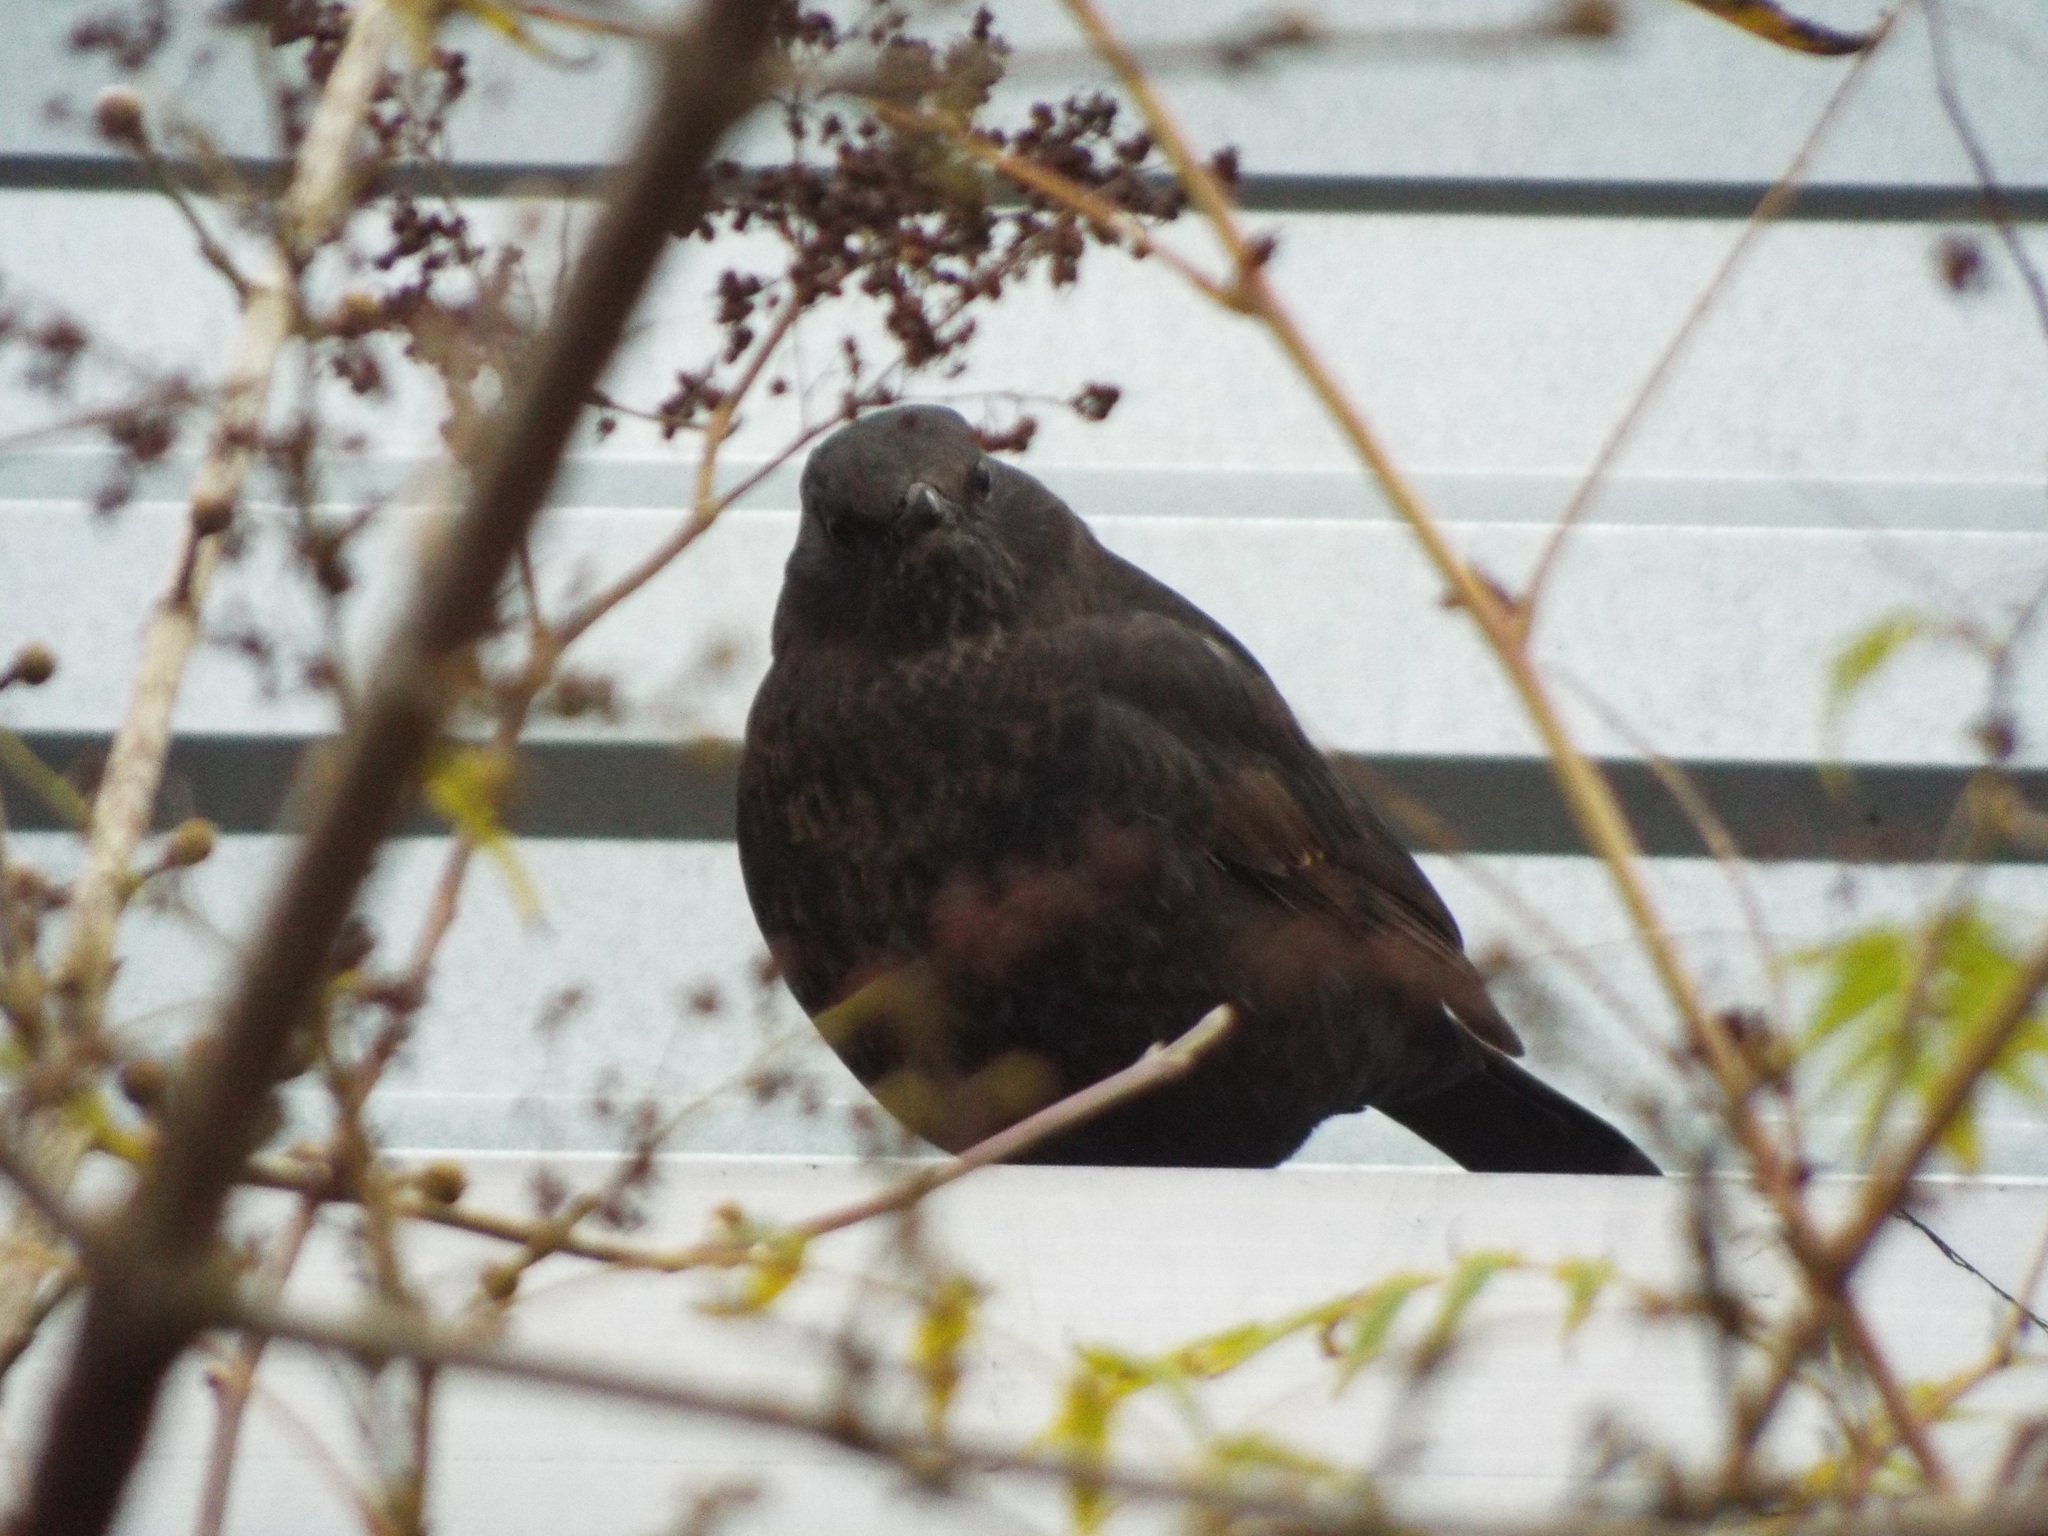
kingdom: Animalia
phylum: Chordata
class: Aves
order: Passeriformes
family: Turdidae
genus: Turdus
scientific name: Turdus merula
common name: Common blackbird
